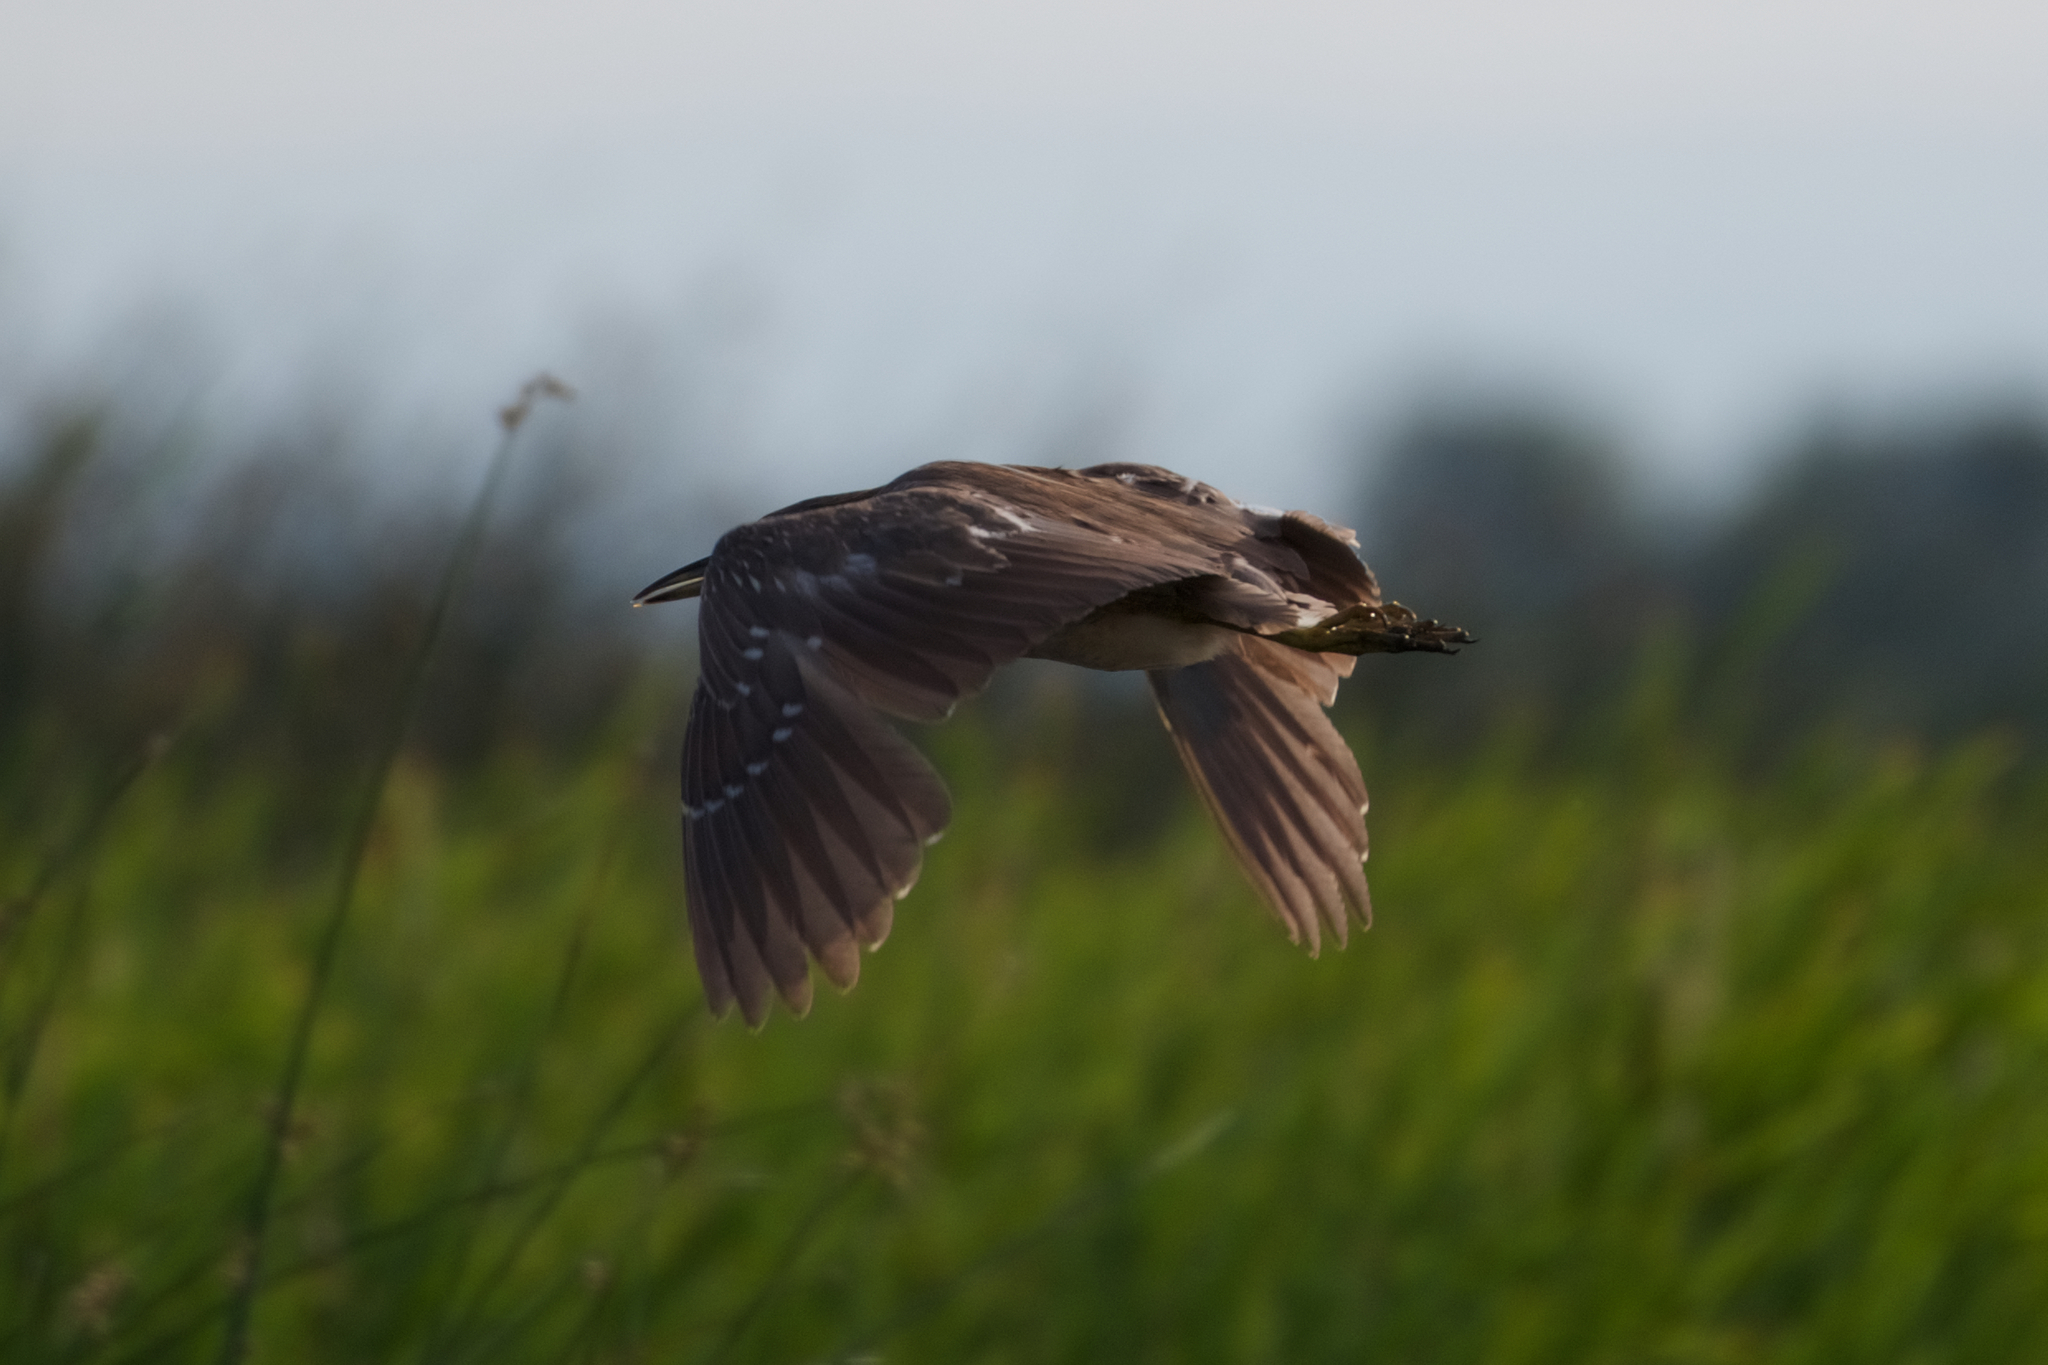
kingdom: Animalia
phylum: Chordata
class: Aves
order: Pelecaniformes
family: Ardeidae
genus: Nycticorax
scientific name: Nycticorax nycticorax
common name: Black-crowned night heron
